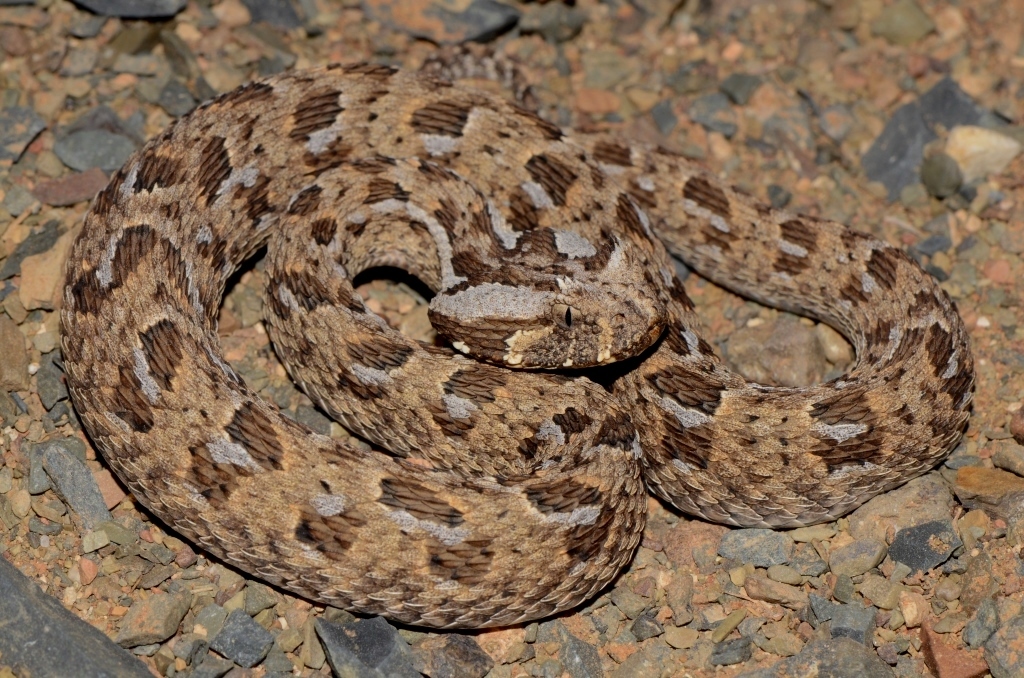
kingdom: Animalia
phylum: Chordata
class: Squamata
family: Viperidae
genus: Bitis
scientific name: Bitis rubida
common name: Red adder
